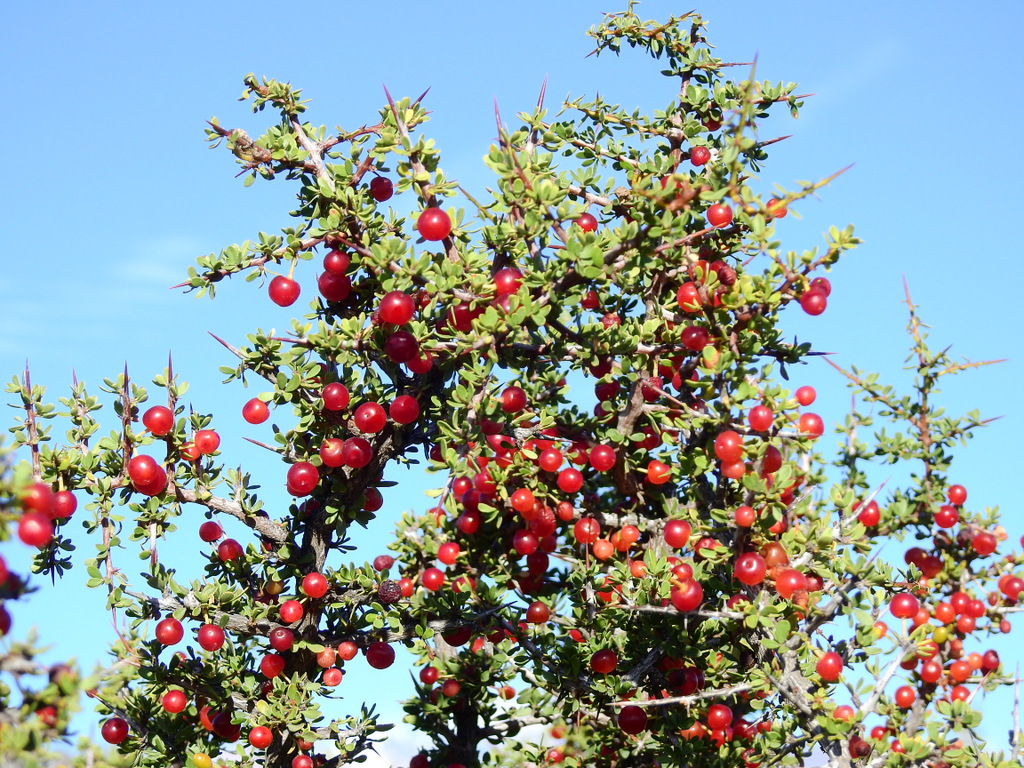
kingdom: Plantae
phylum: Tracheophyta
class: Magnoliopsida
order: Rosales
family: Rhamnaceae
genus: Condalia
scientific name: Condalia microphylla
